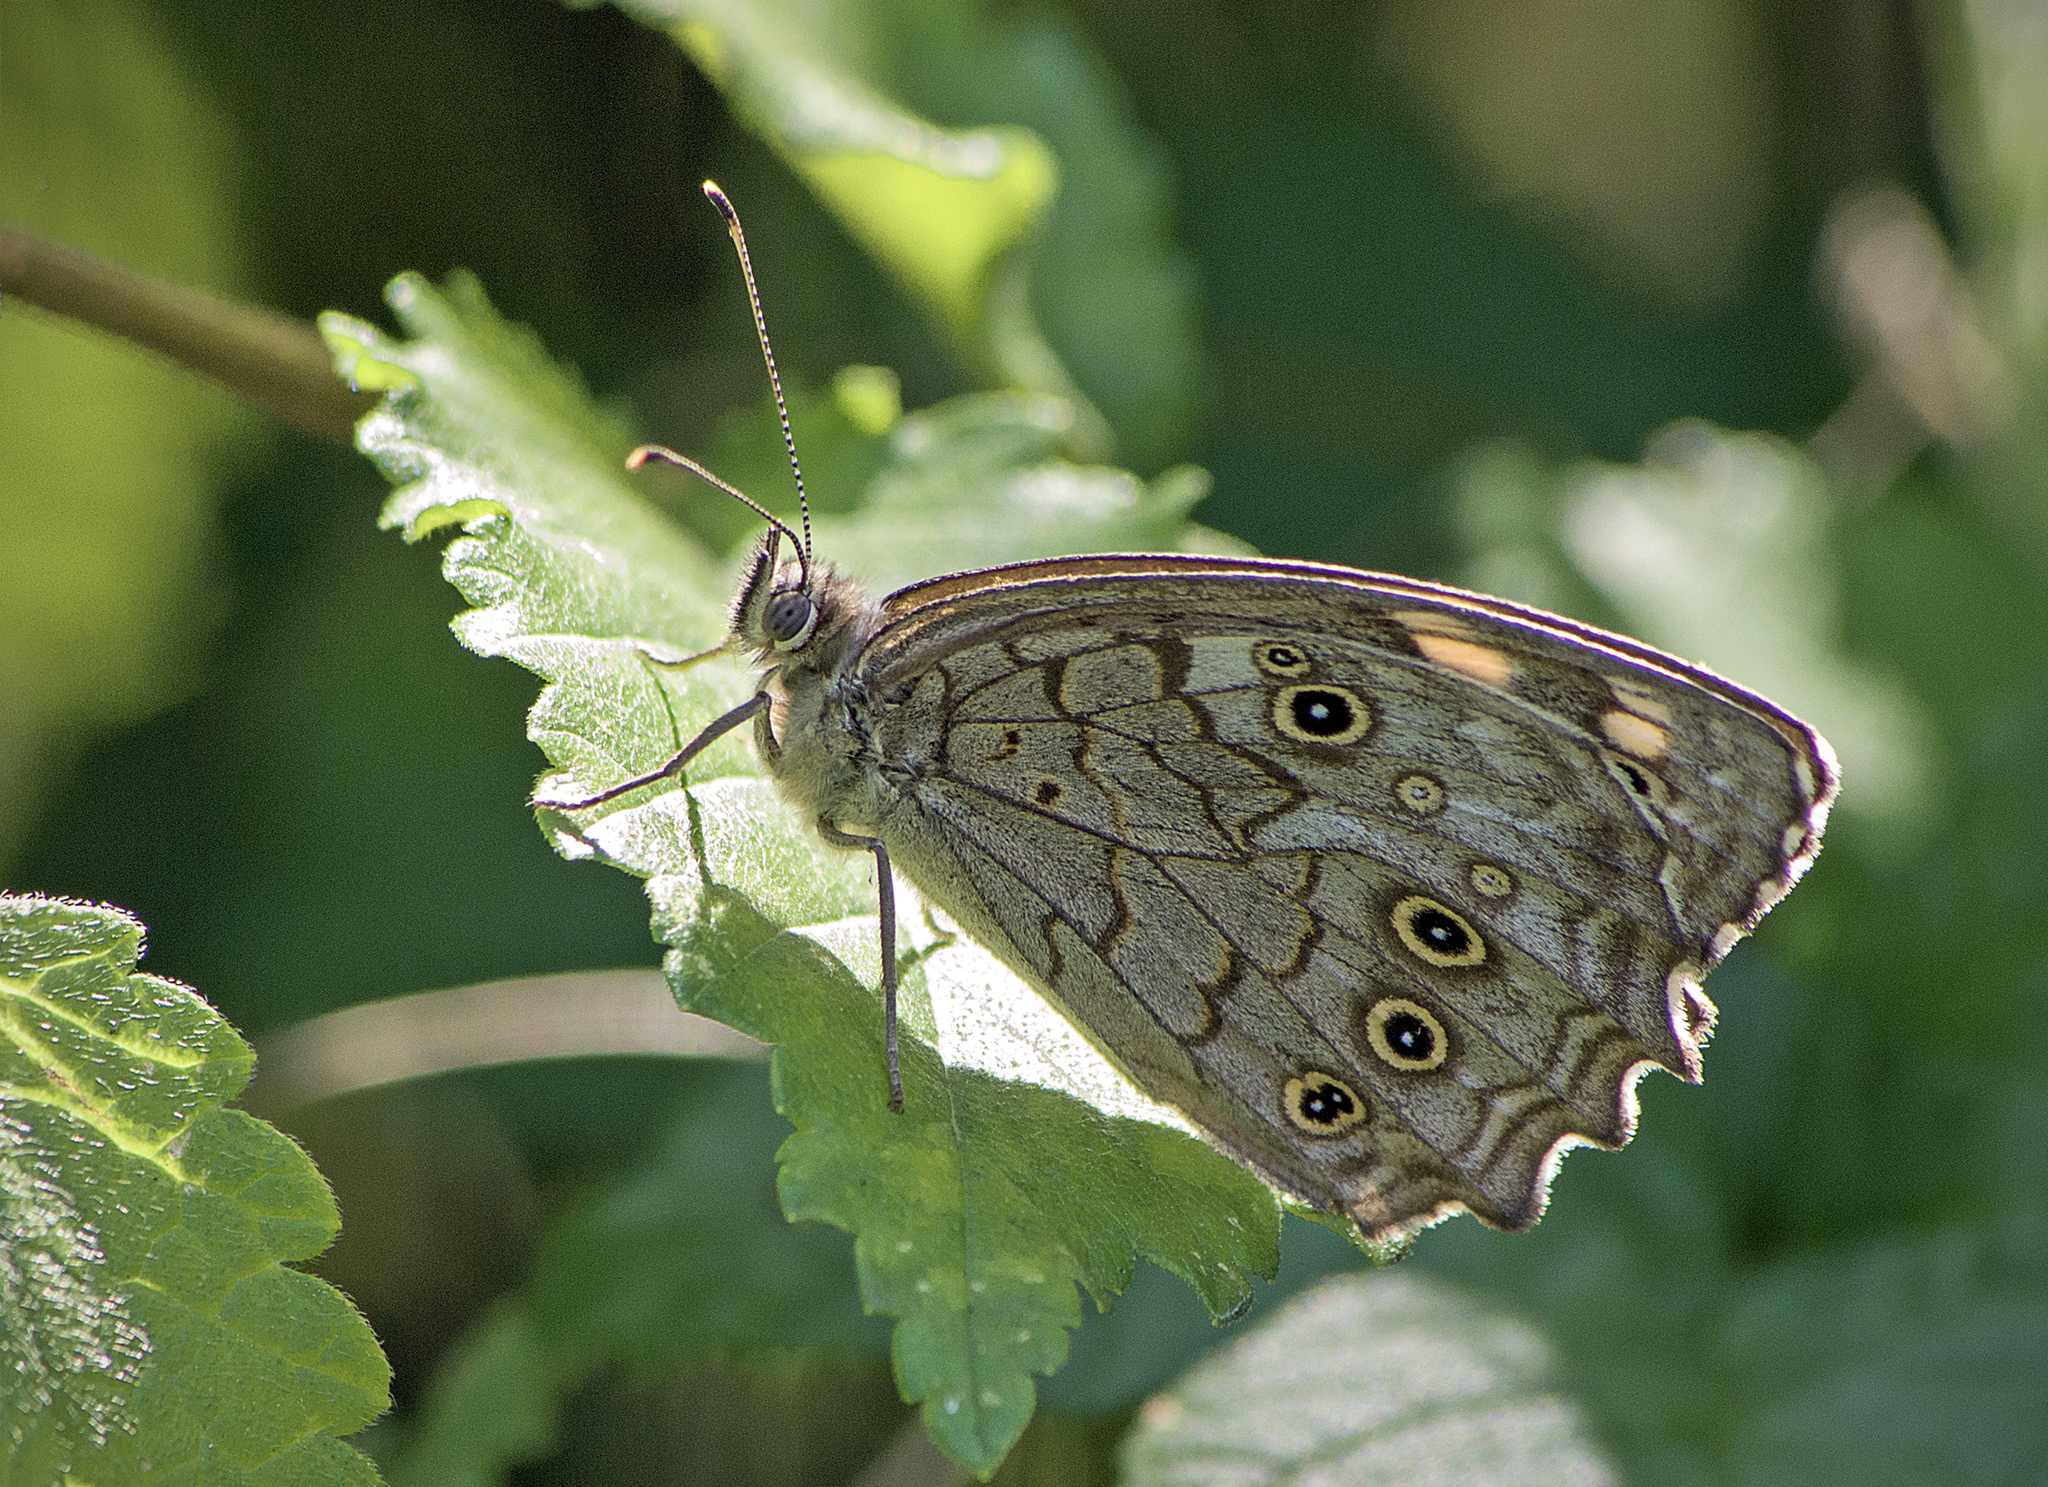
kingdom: Animalia
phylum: Arthropoda
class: Insecta
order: Lepidoptera
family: Nymphalidae
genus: Kirinia
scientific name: Kirinia roxelana
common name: Lattice brown
